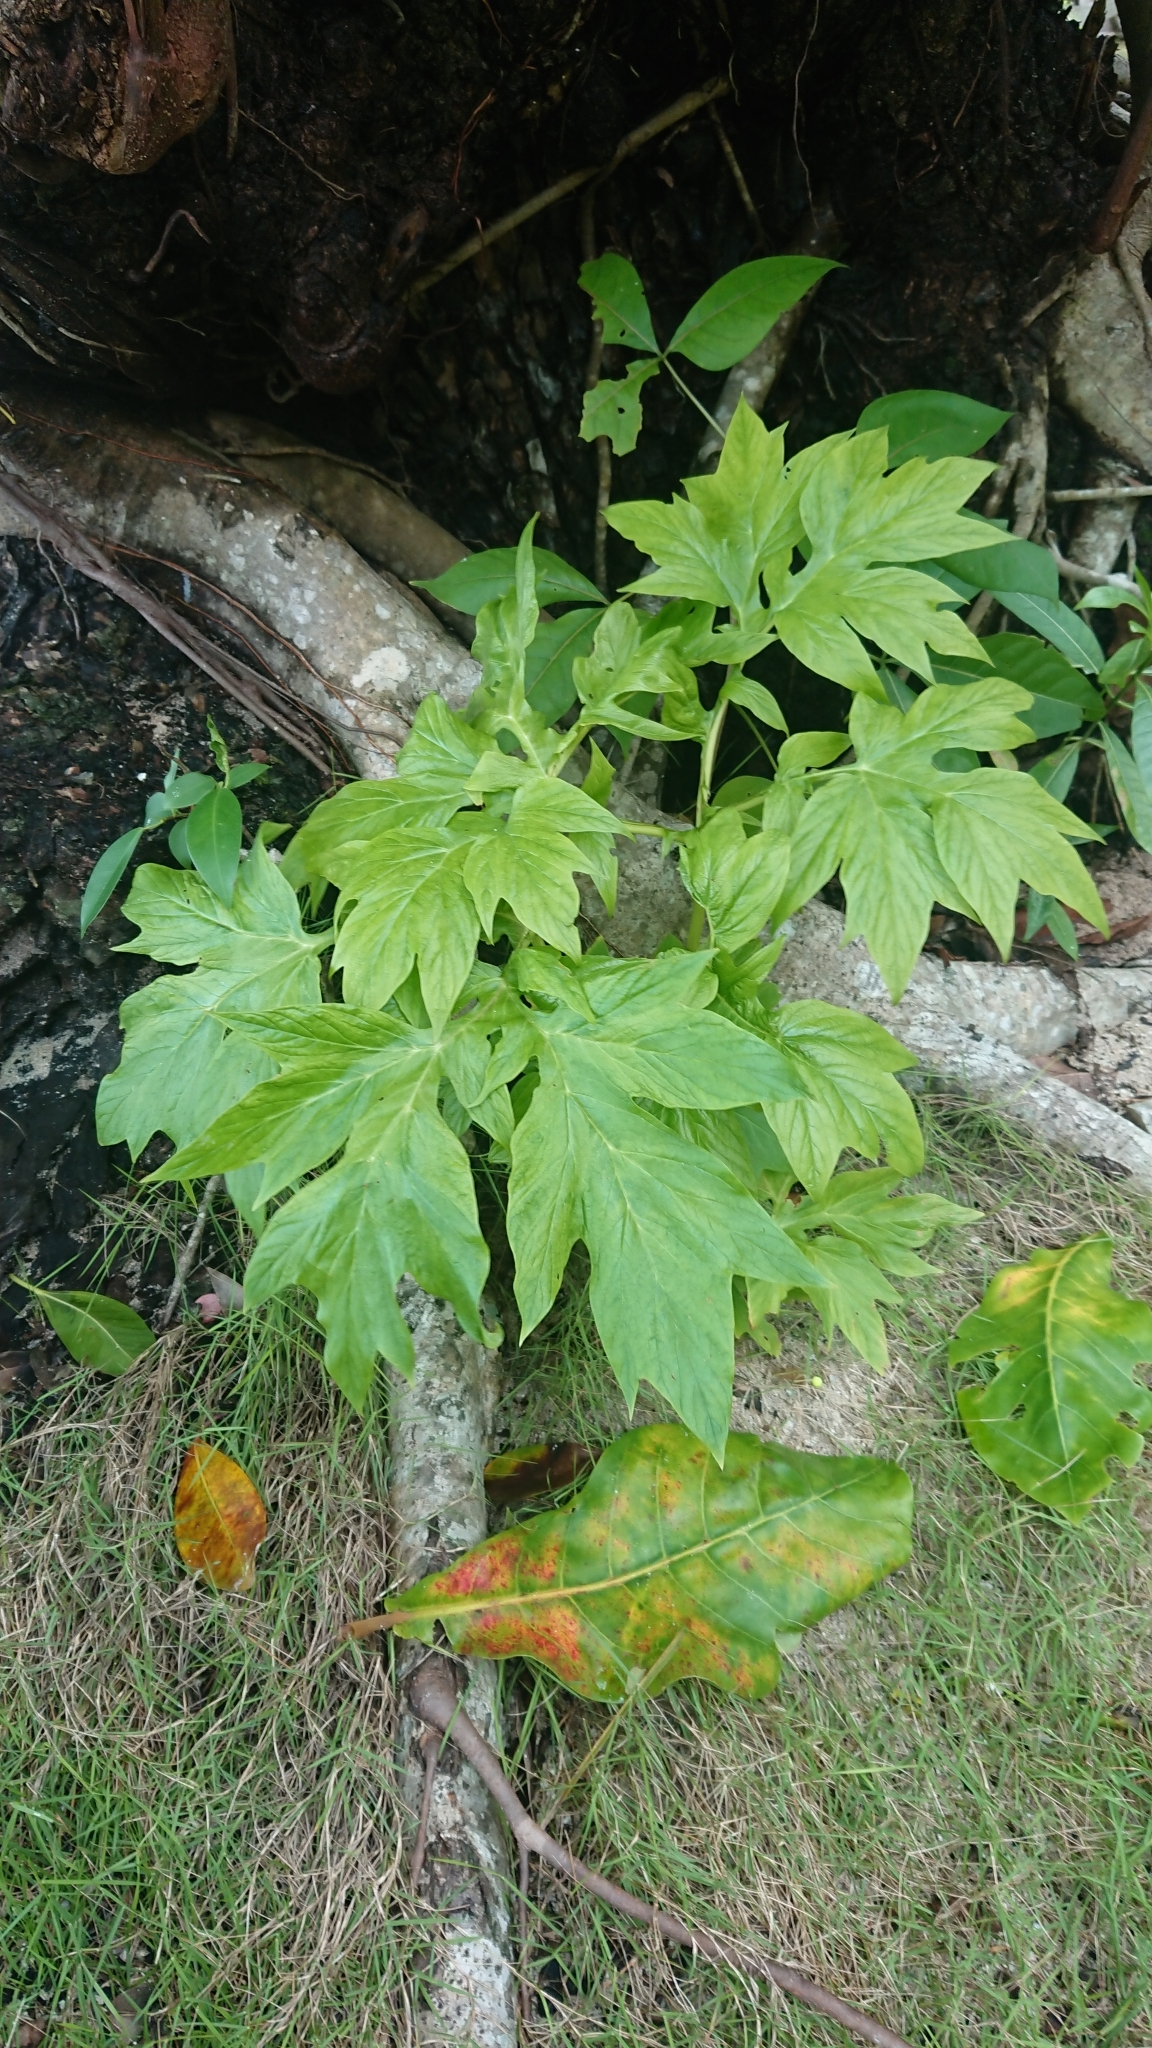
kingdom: Plantae
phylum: Tracheophyta
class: Liliopsida
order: Dioscoreales
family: Dioscoreaceae
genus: Tacca
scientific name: Tacca leontopetaloides
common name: Arrowroot
